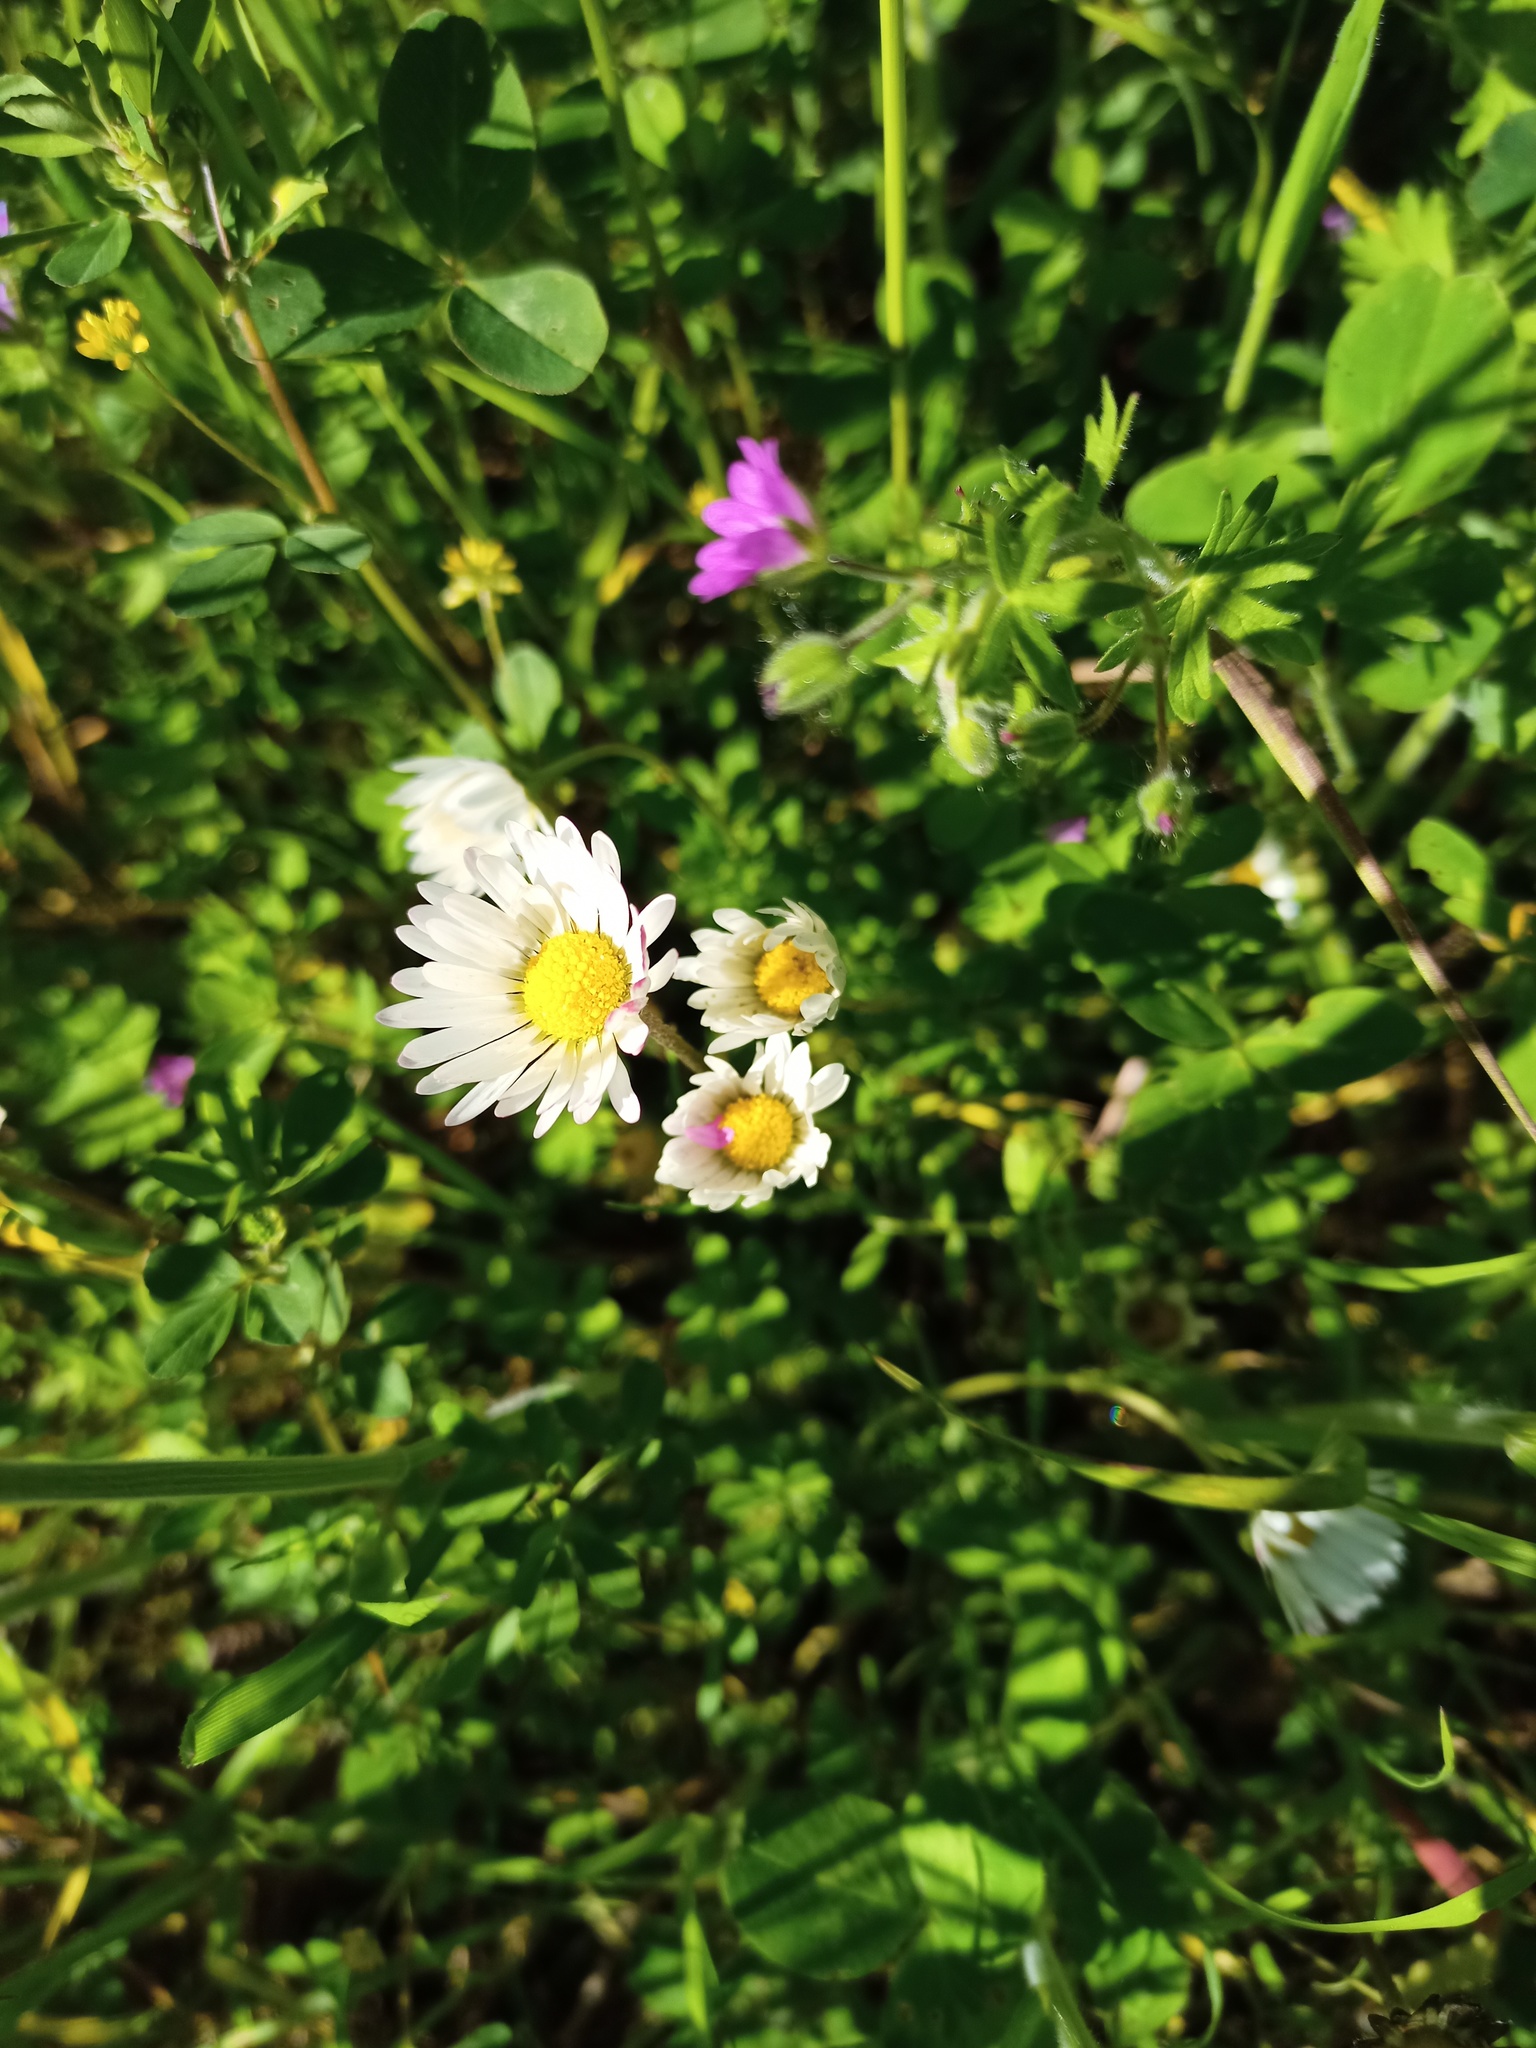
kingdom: Plantae
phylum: Tracheophyta
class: Magnoliopsida
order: Asterales
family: Asteraceae
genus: Bellis
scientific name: Bellis perennis
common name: Lawndaisy
